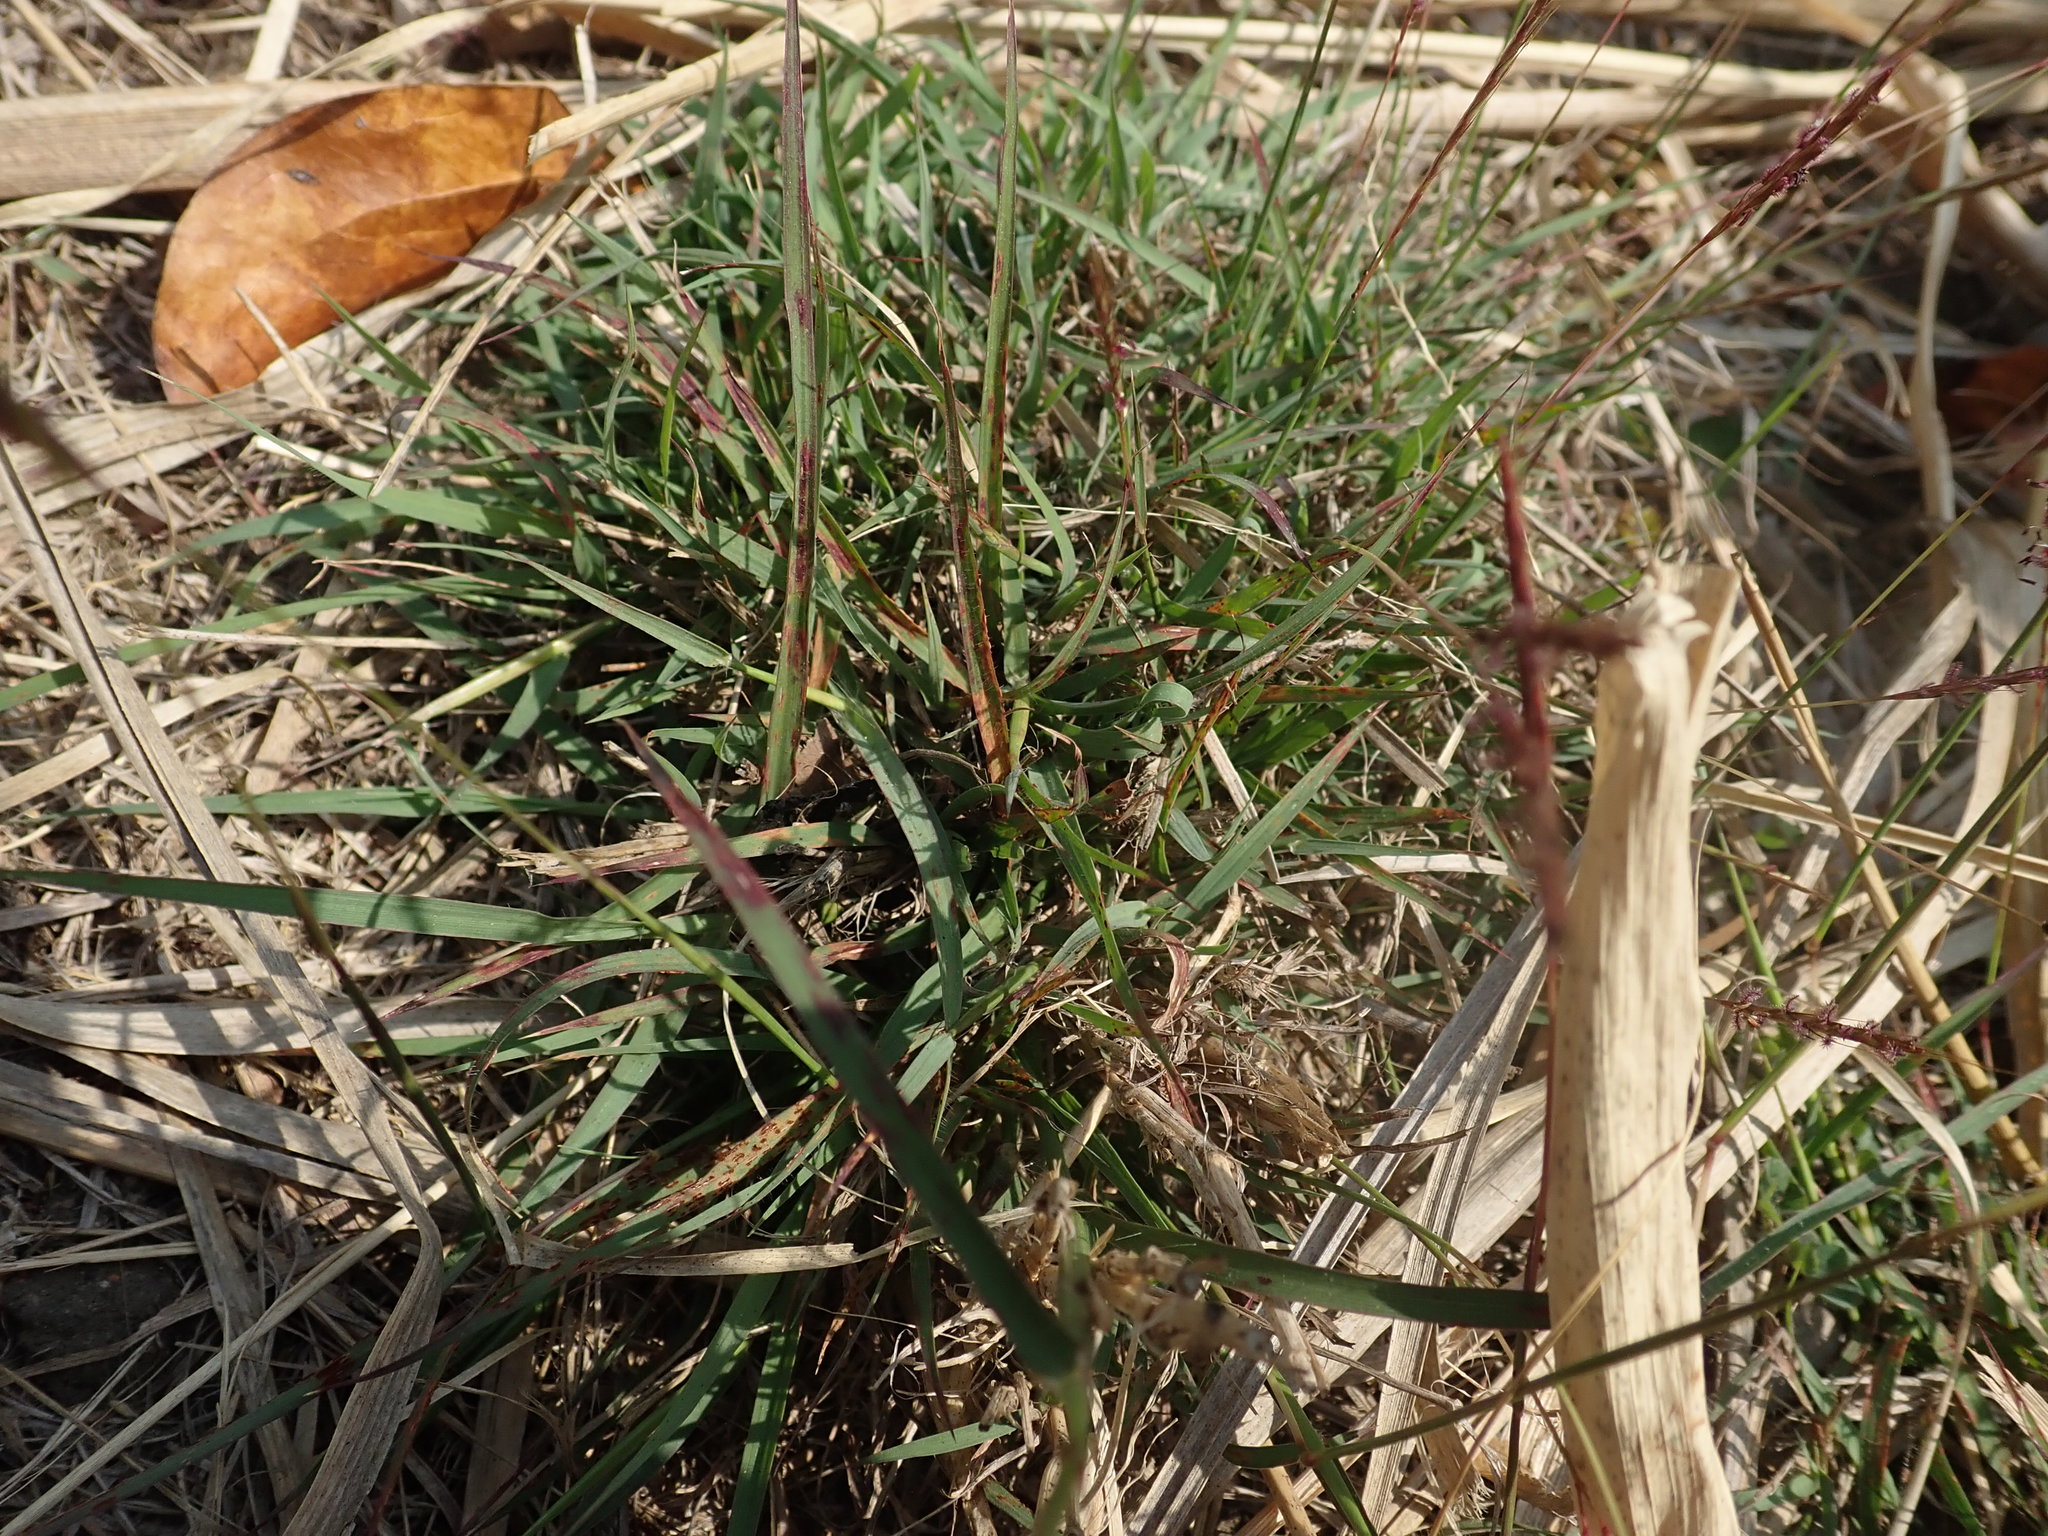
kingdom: Plantae
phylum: Tracheophyta
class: Liliopsida
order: Poales
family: Poaceae
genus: Bothriochloa
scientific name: Bothriochloa bladhii
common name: Caucasian bluestem
